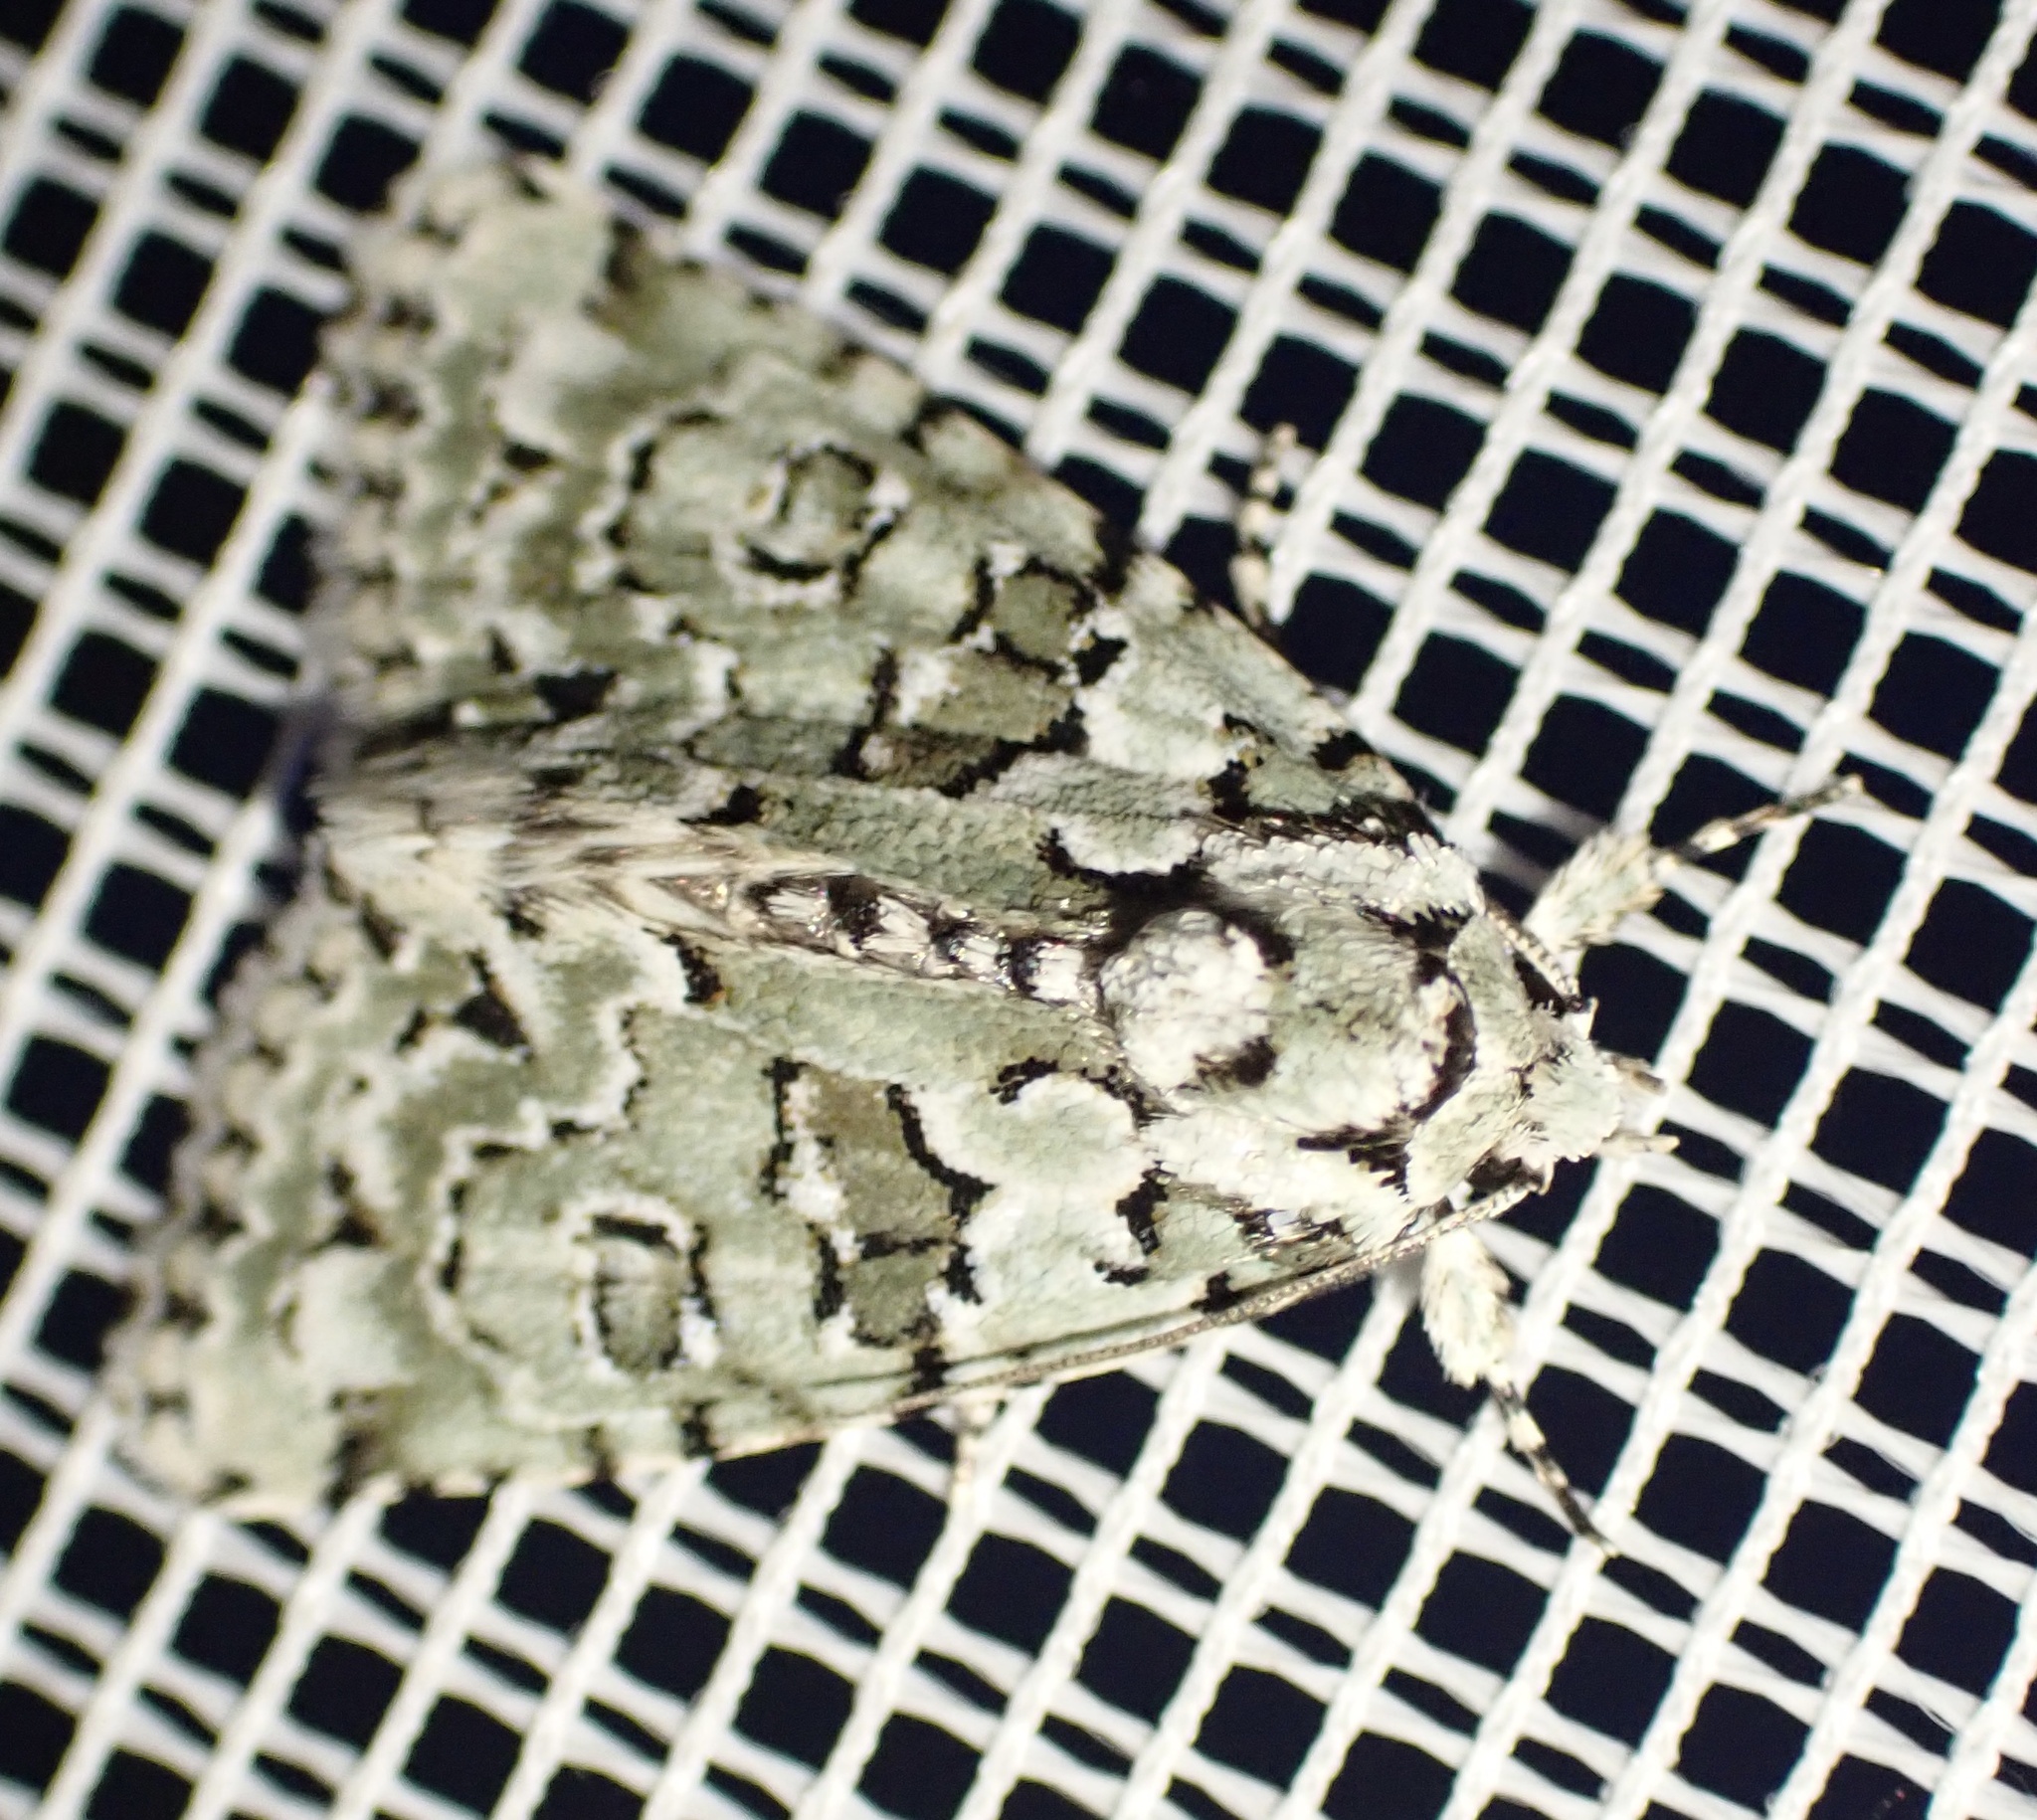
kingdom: Animalia
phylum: Arthropoda
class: Insecta
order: Lepidoptera
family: Noctuidae
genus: Nyctobrya
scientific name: Nyctobrya muralis
